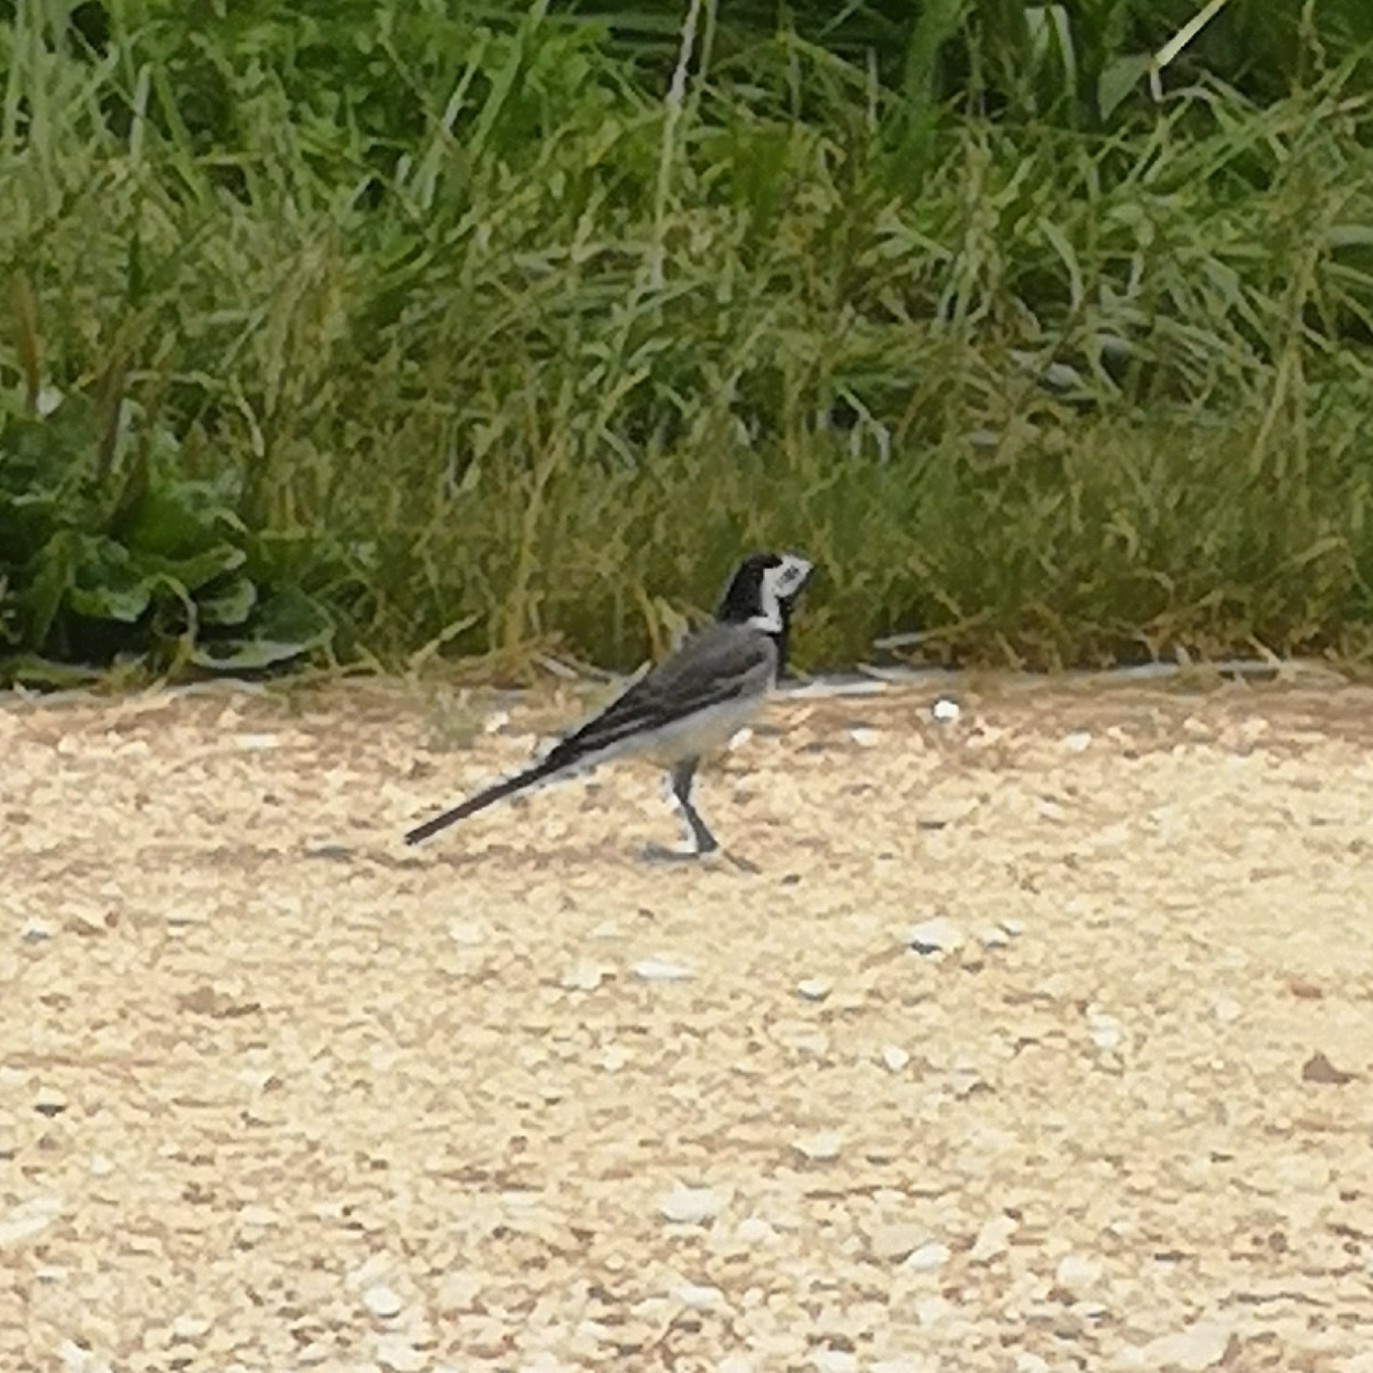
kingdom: Animalia
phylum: Chordata
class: Aves
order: Passeriformes
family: Motacillidae
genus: Motacilla
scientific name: Motacilla alba
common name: White wagtail
